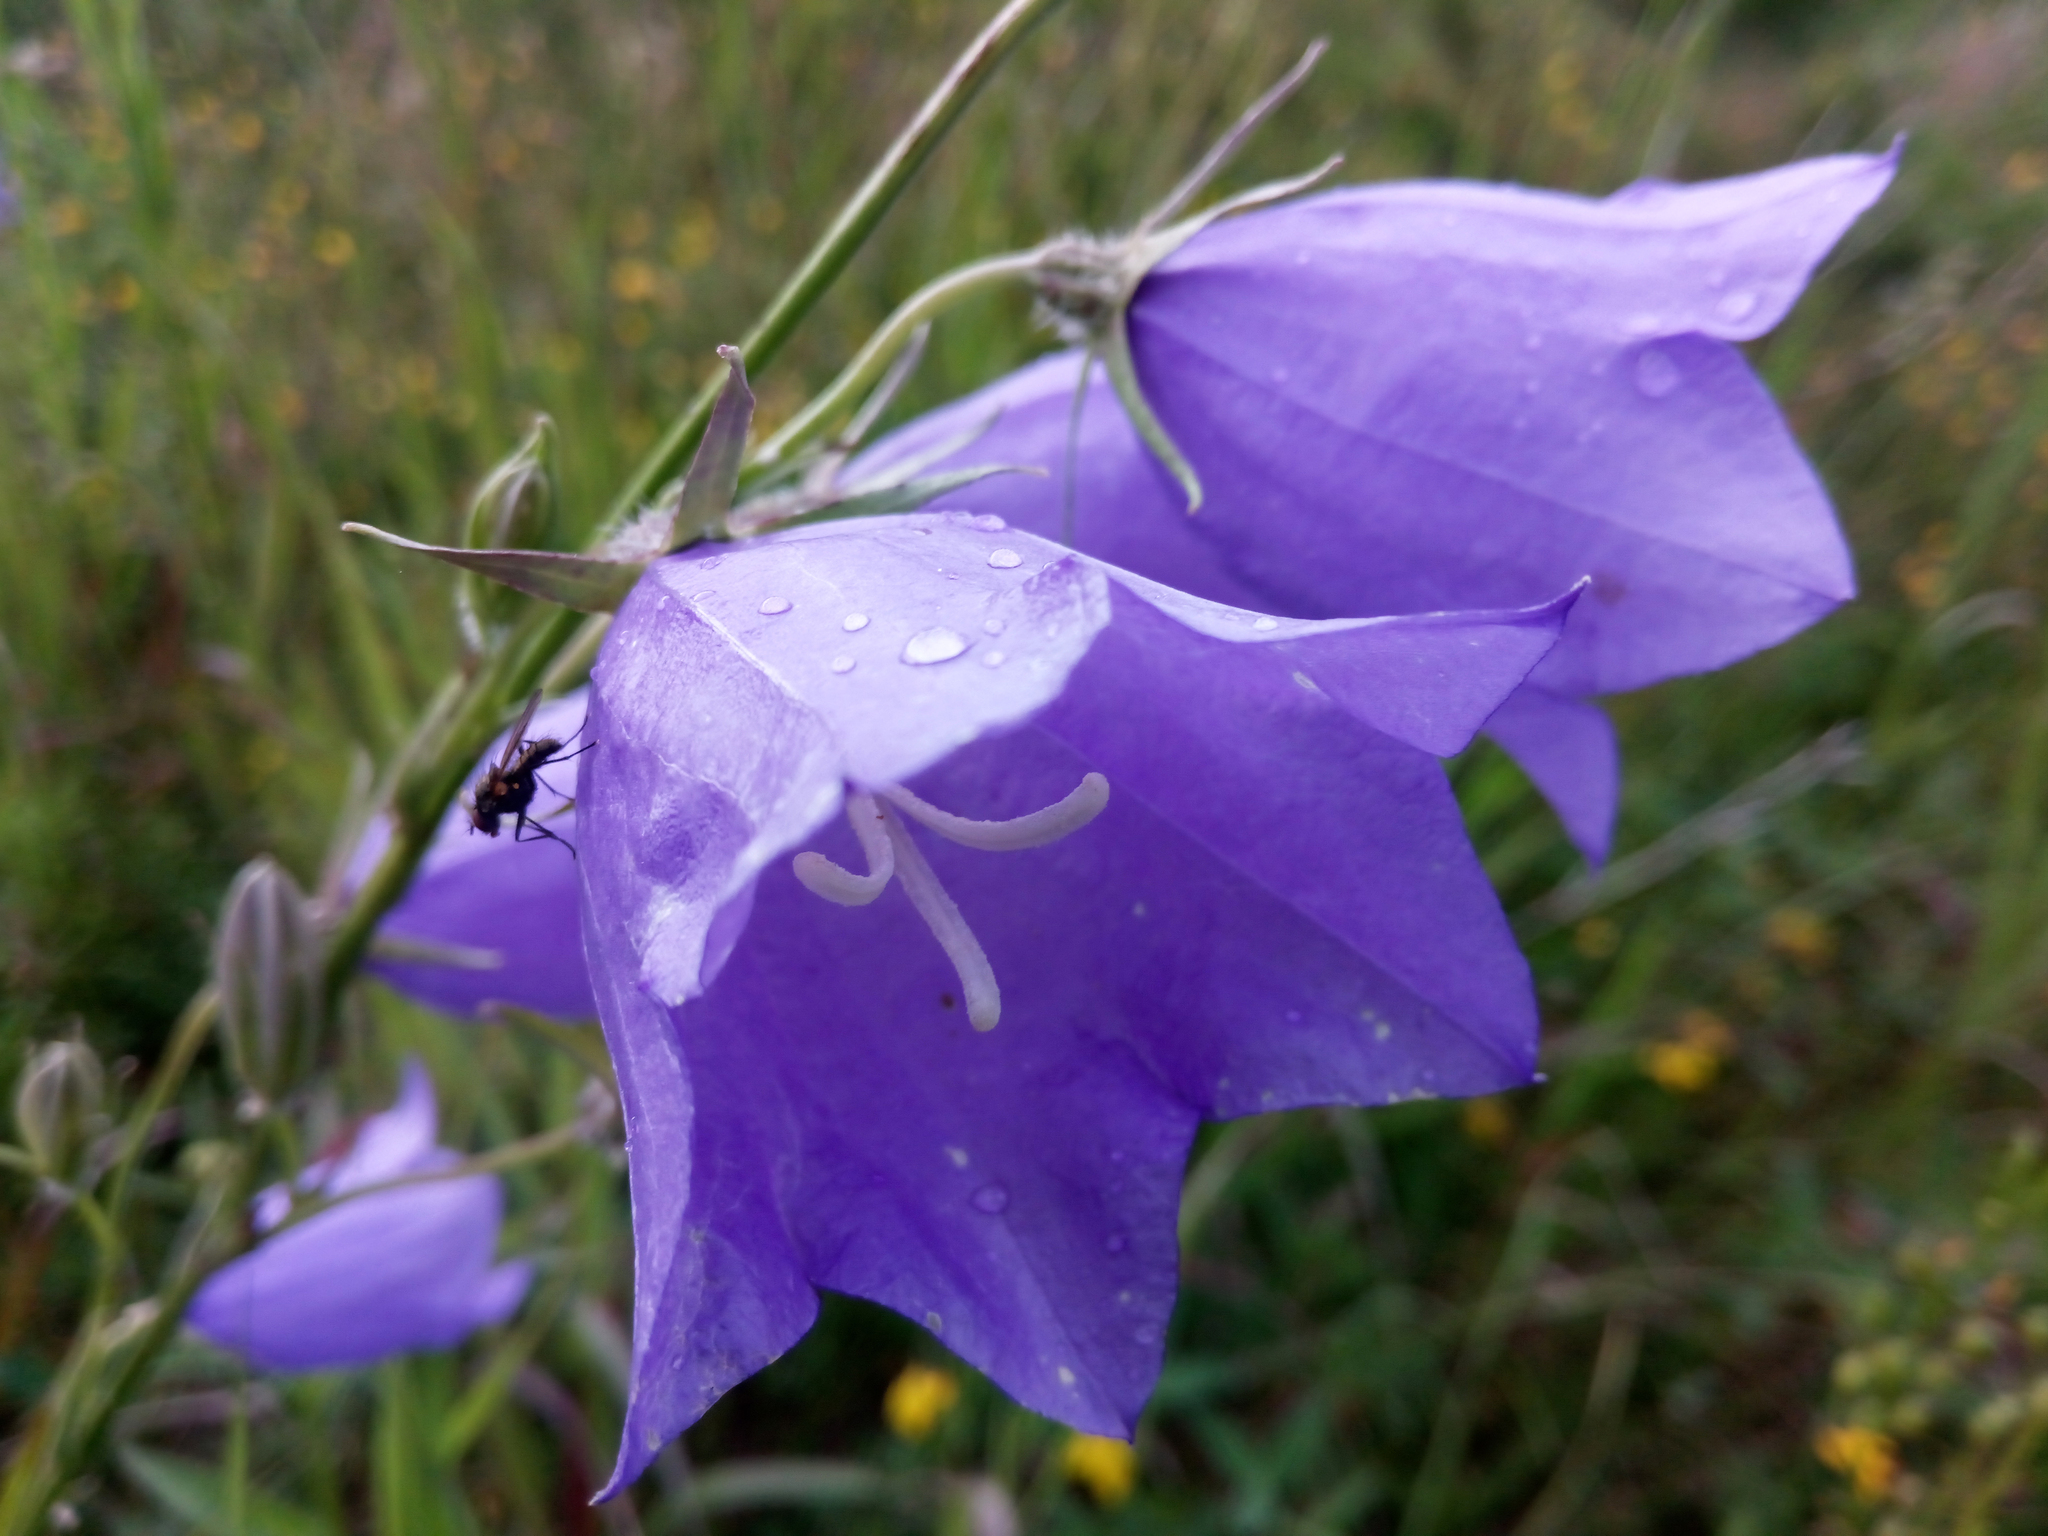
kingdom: Plantae
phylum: Tracheophyta
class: Magnoliopsida
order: Asterales
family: Campanulaceae
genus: Campanula
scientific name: Campanula persicifolia
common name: Peach-leaved bellflower
